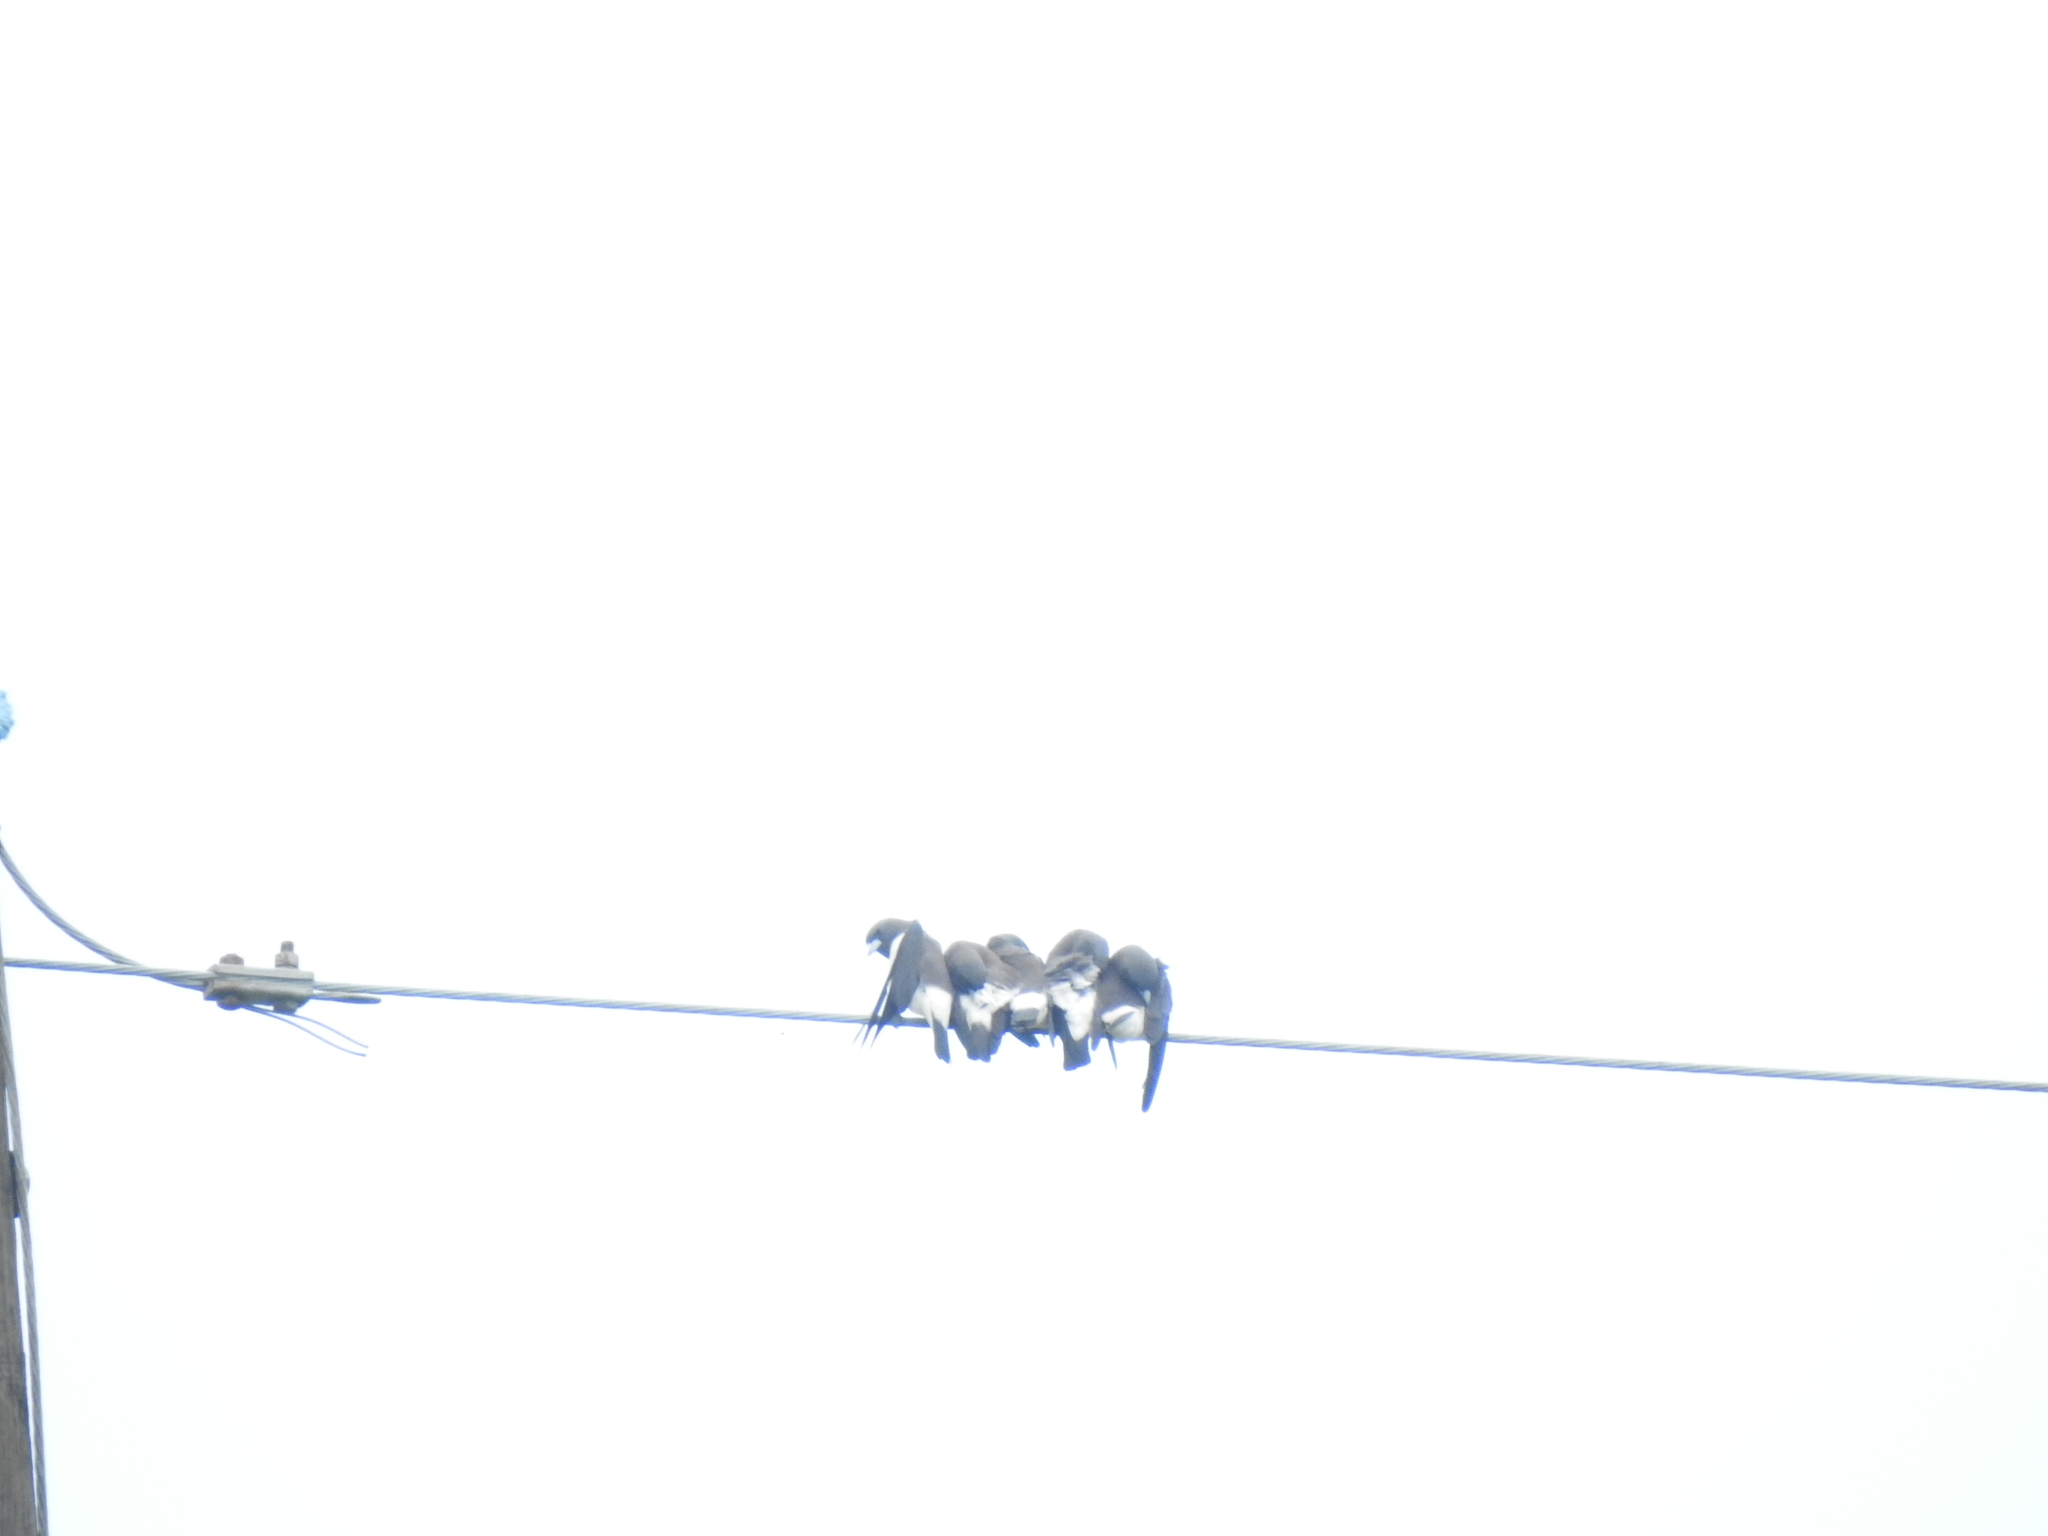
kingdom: Animalia
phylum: Chordata
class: Aves
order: Passeriformes
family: Artamidae
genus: Artamus
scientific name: Artamus leucoryn
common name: White-breasted woodswallow
